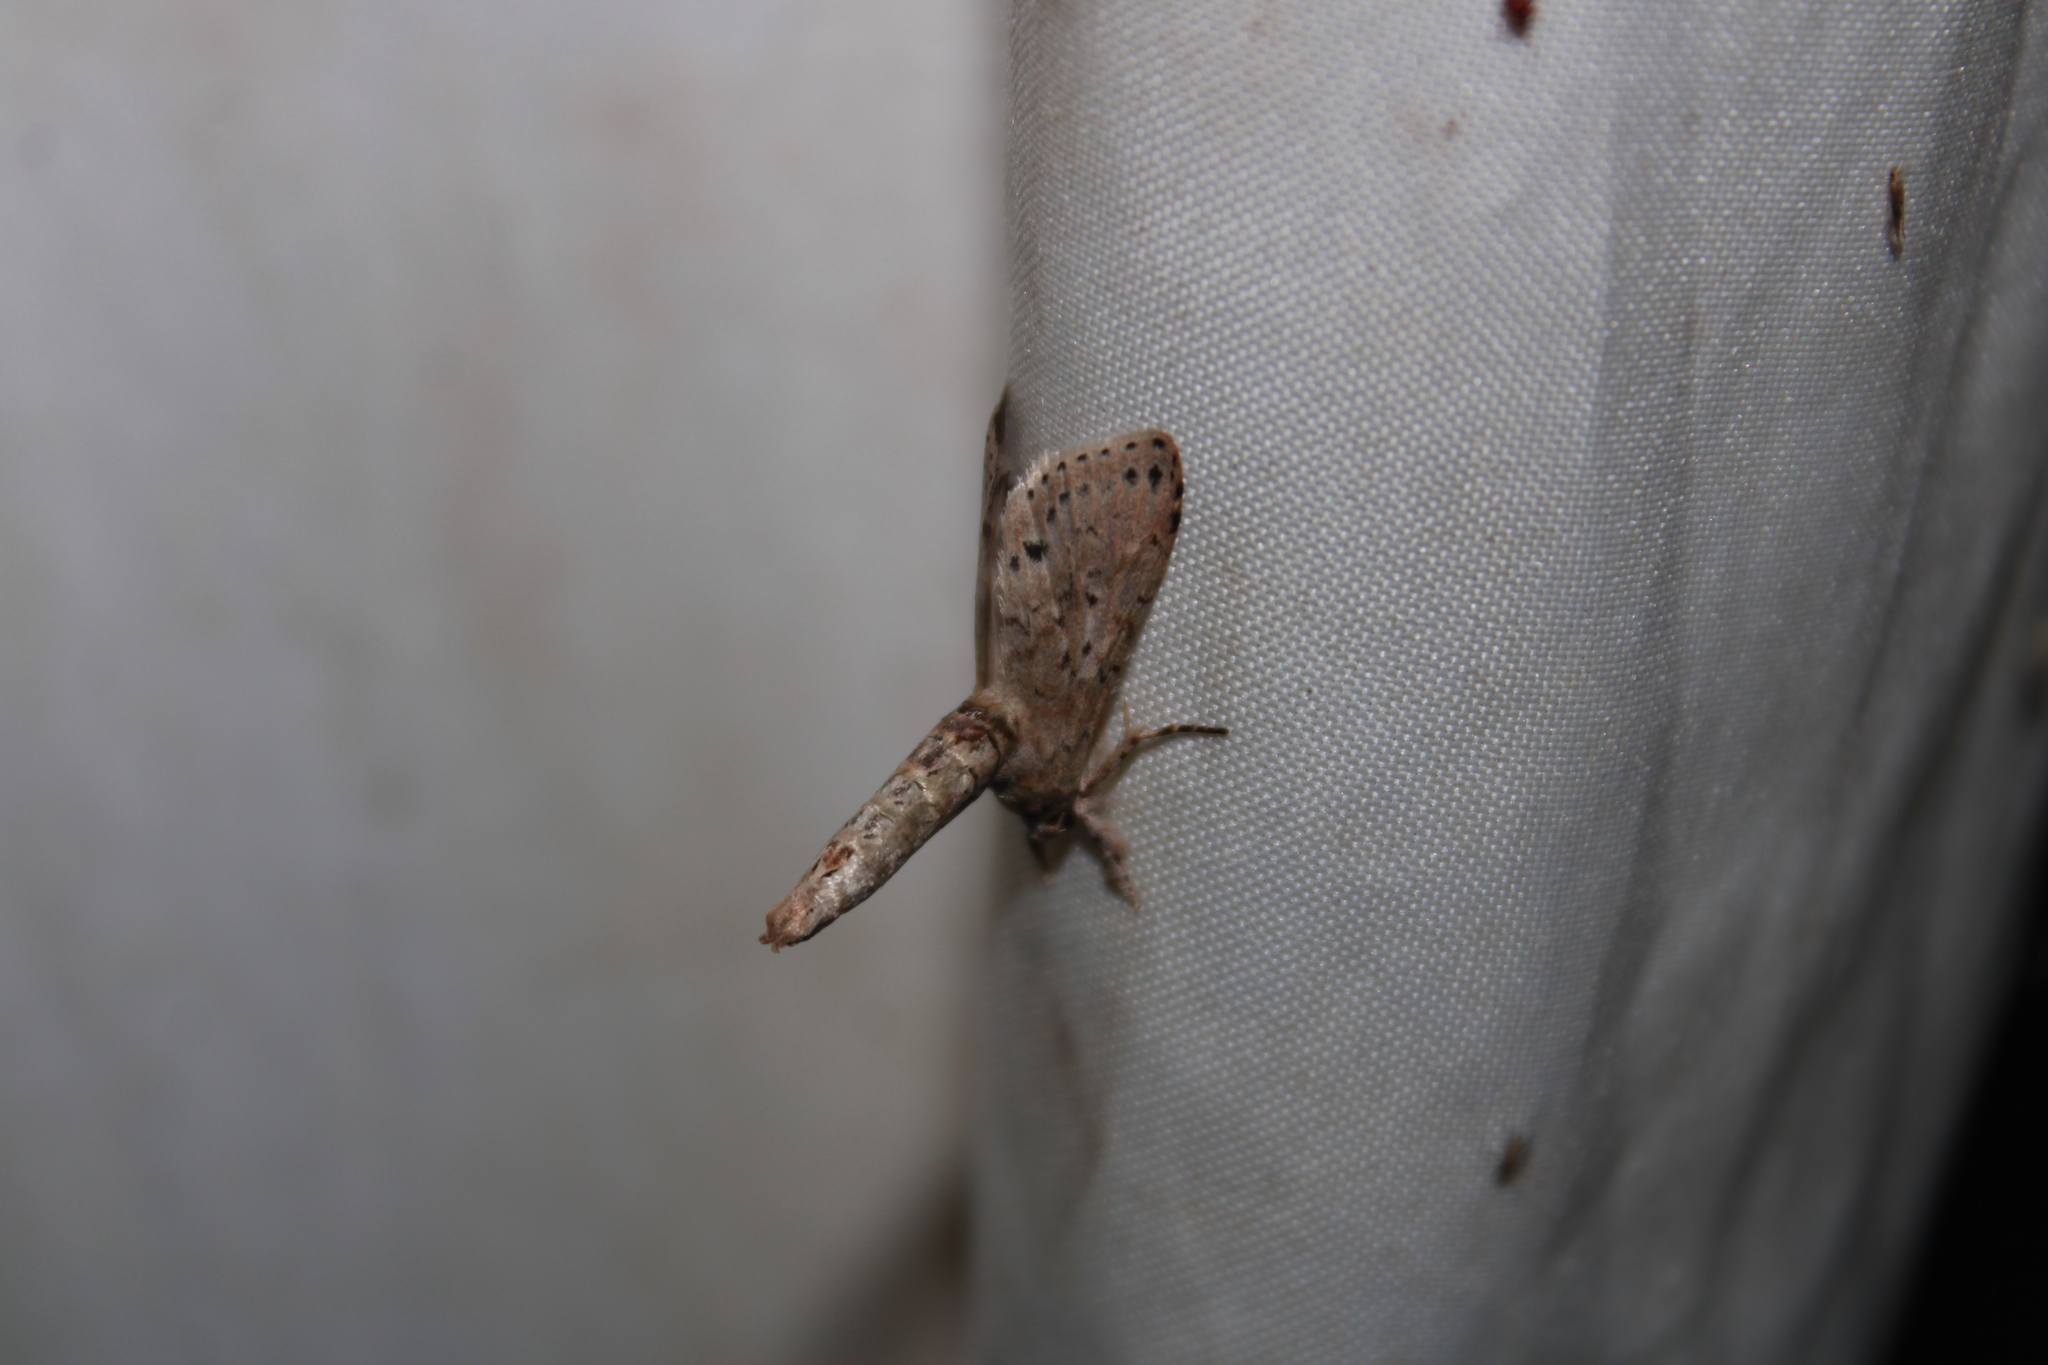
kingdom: Animalia
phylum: Arthropoda
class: Insecta
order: Lepidoptera
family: Nolidae
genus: Motya
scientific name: Motya abseuzalis
